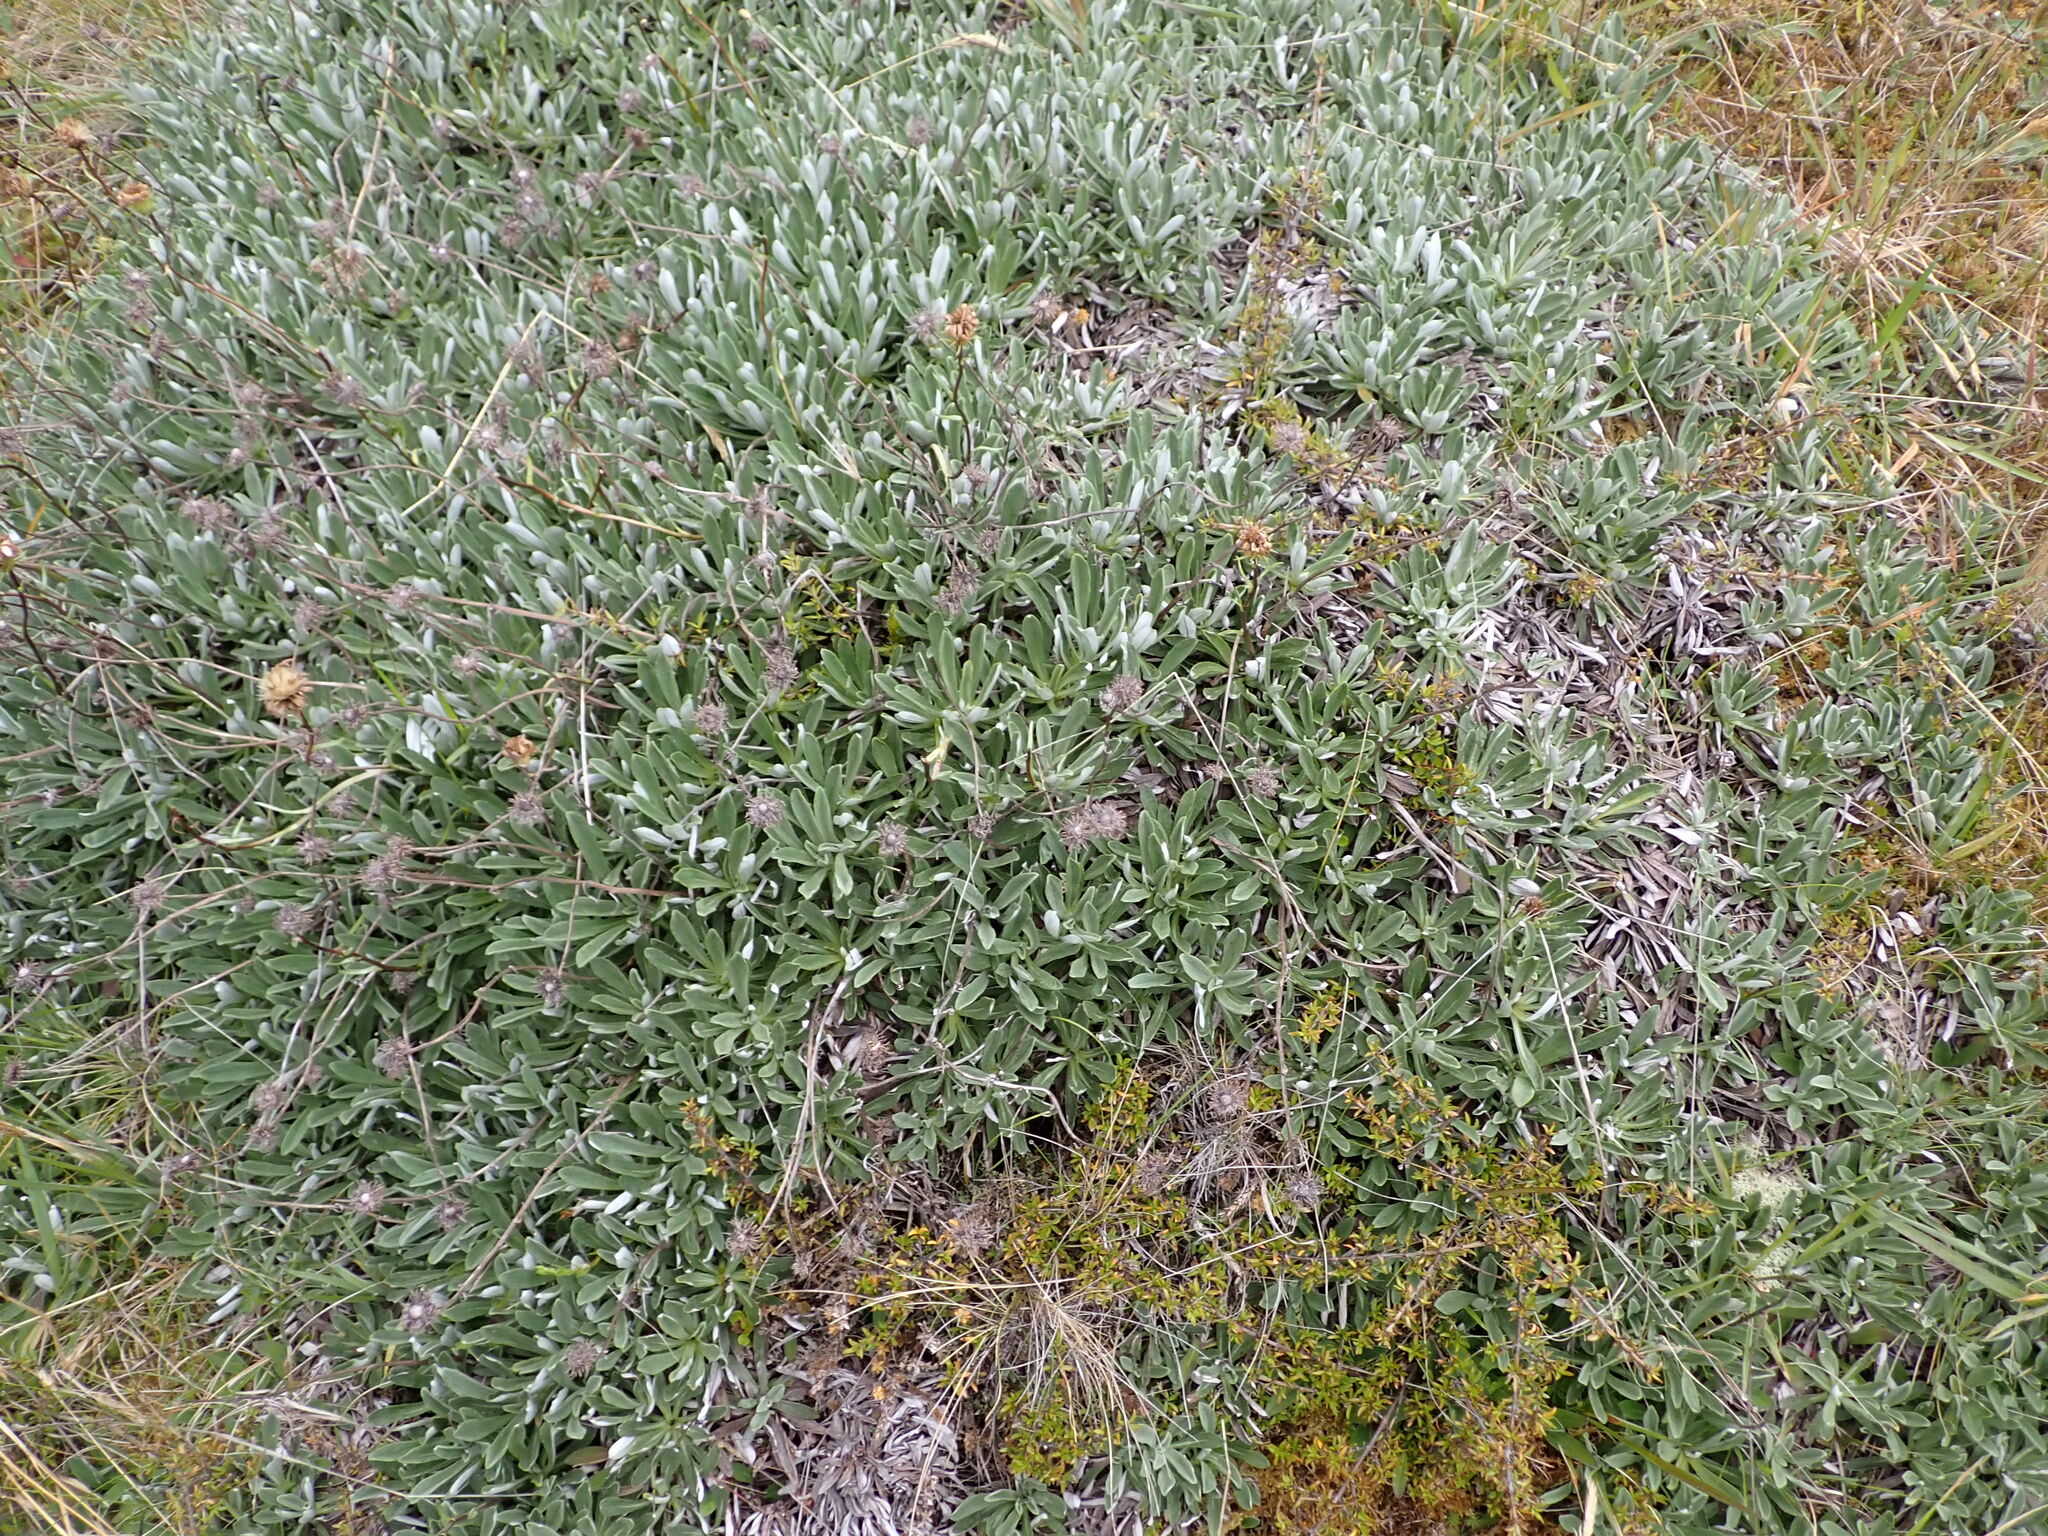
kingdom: Plantae
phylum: Tracheophyta
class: Magnoliopsida
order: Asterales
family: Asteraceae
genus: Celmisia
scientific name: Celmisia angustifolia
